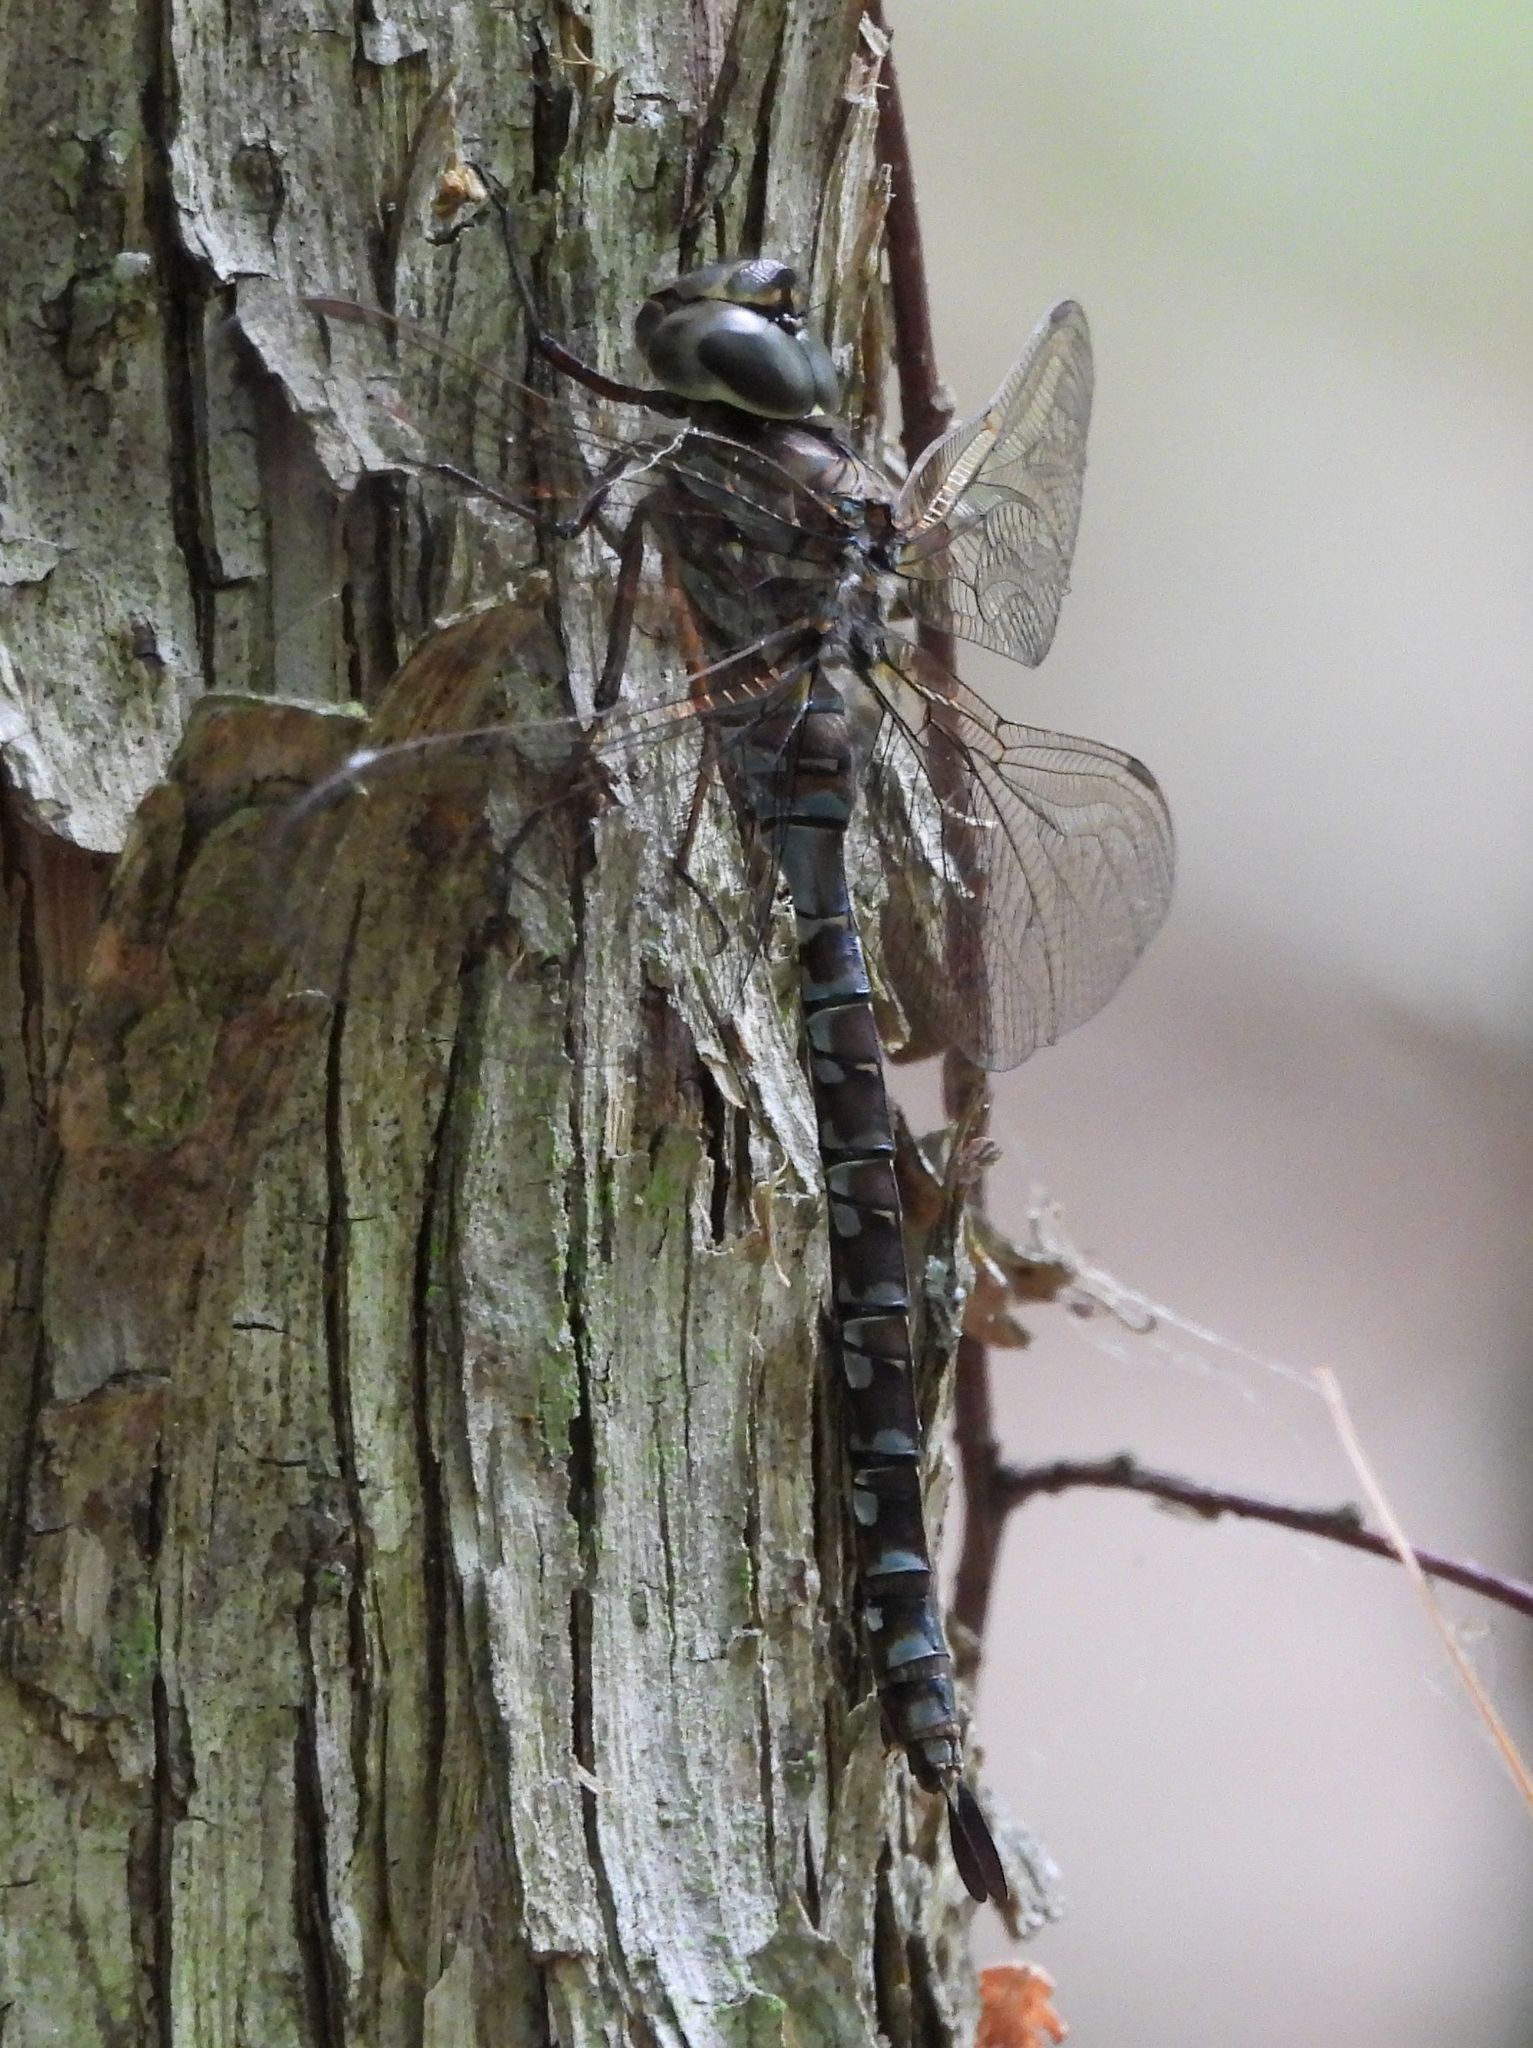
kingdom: Animalia
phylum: Arthropoda
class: Insecta
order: Odonata
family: Aeshnidae
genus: Aeshna
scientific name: Aeshna canadensis
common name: Canada darner
